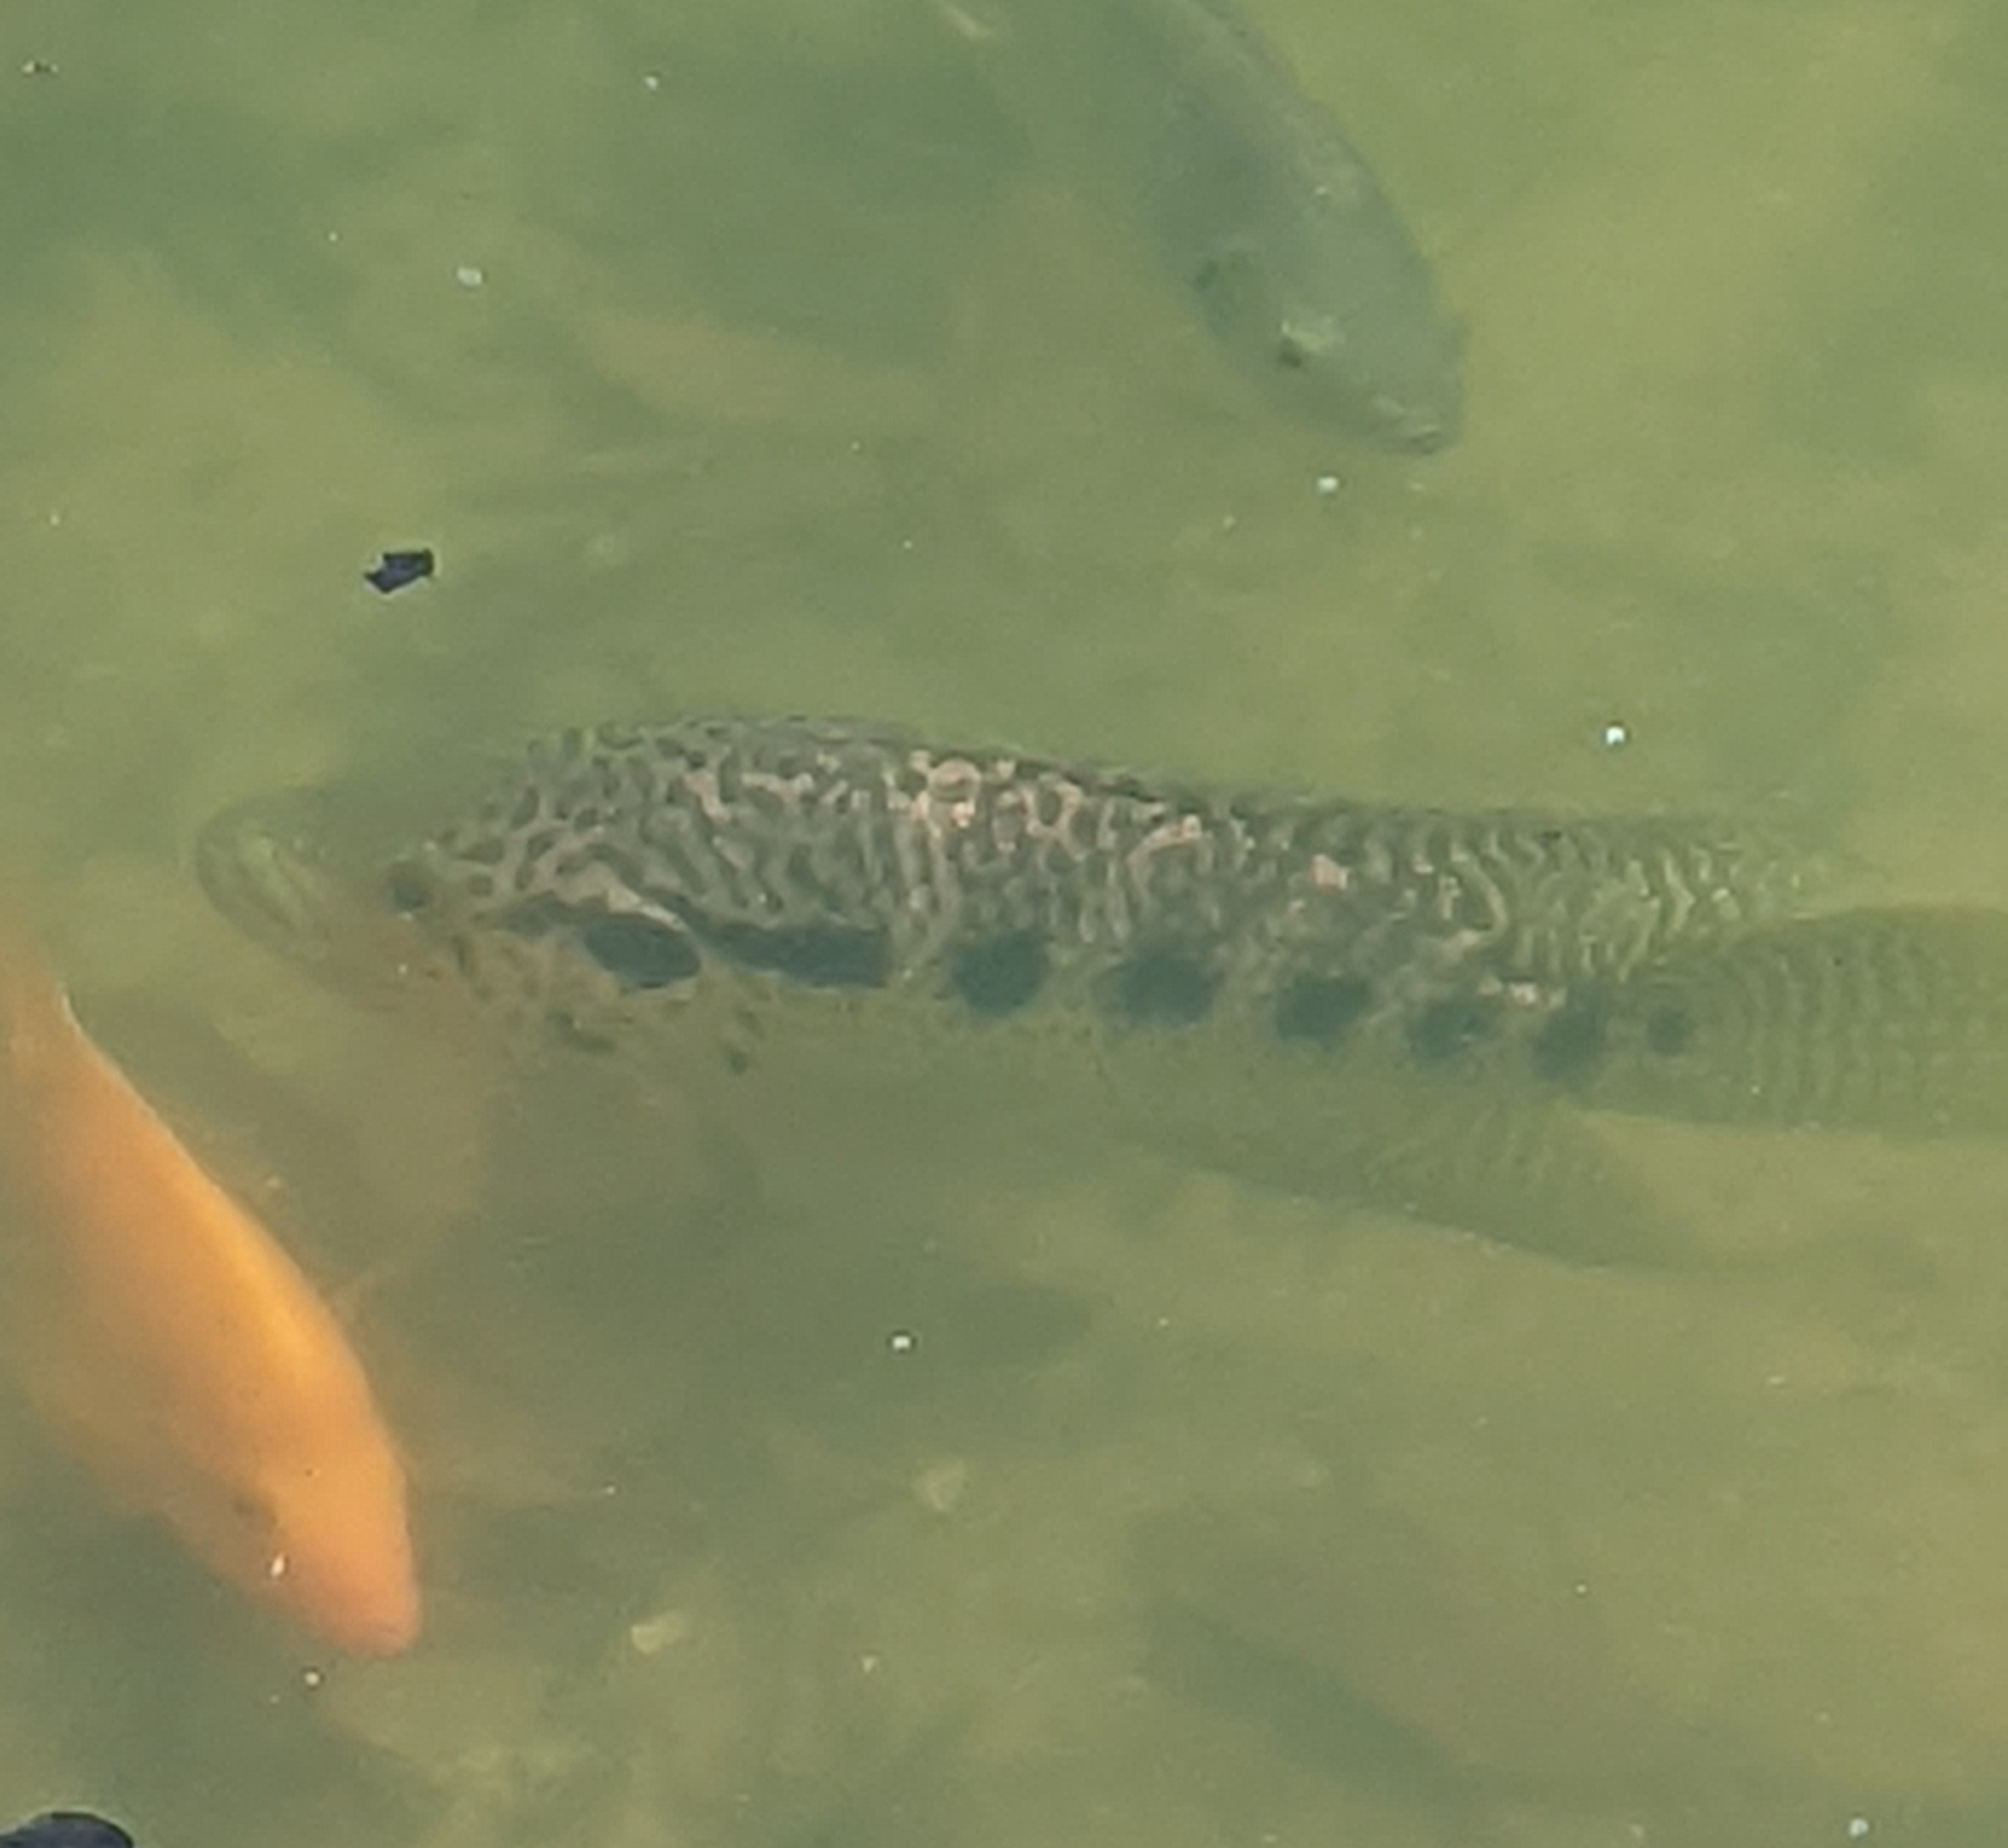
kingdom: Animalia
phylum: Chordata
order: Perciformes
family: Cichlidae
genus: Parachromis
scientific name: Parachromis managuensis
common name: Jaguar guapote
